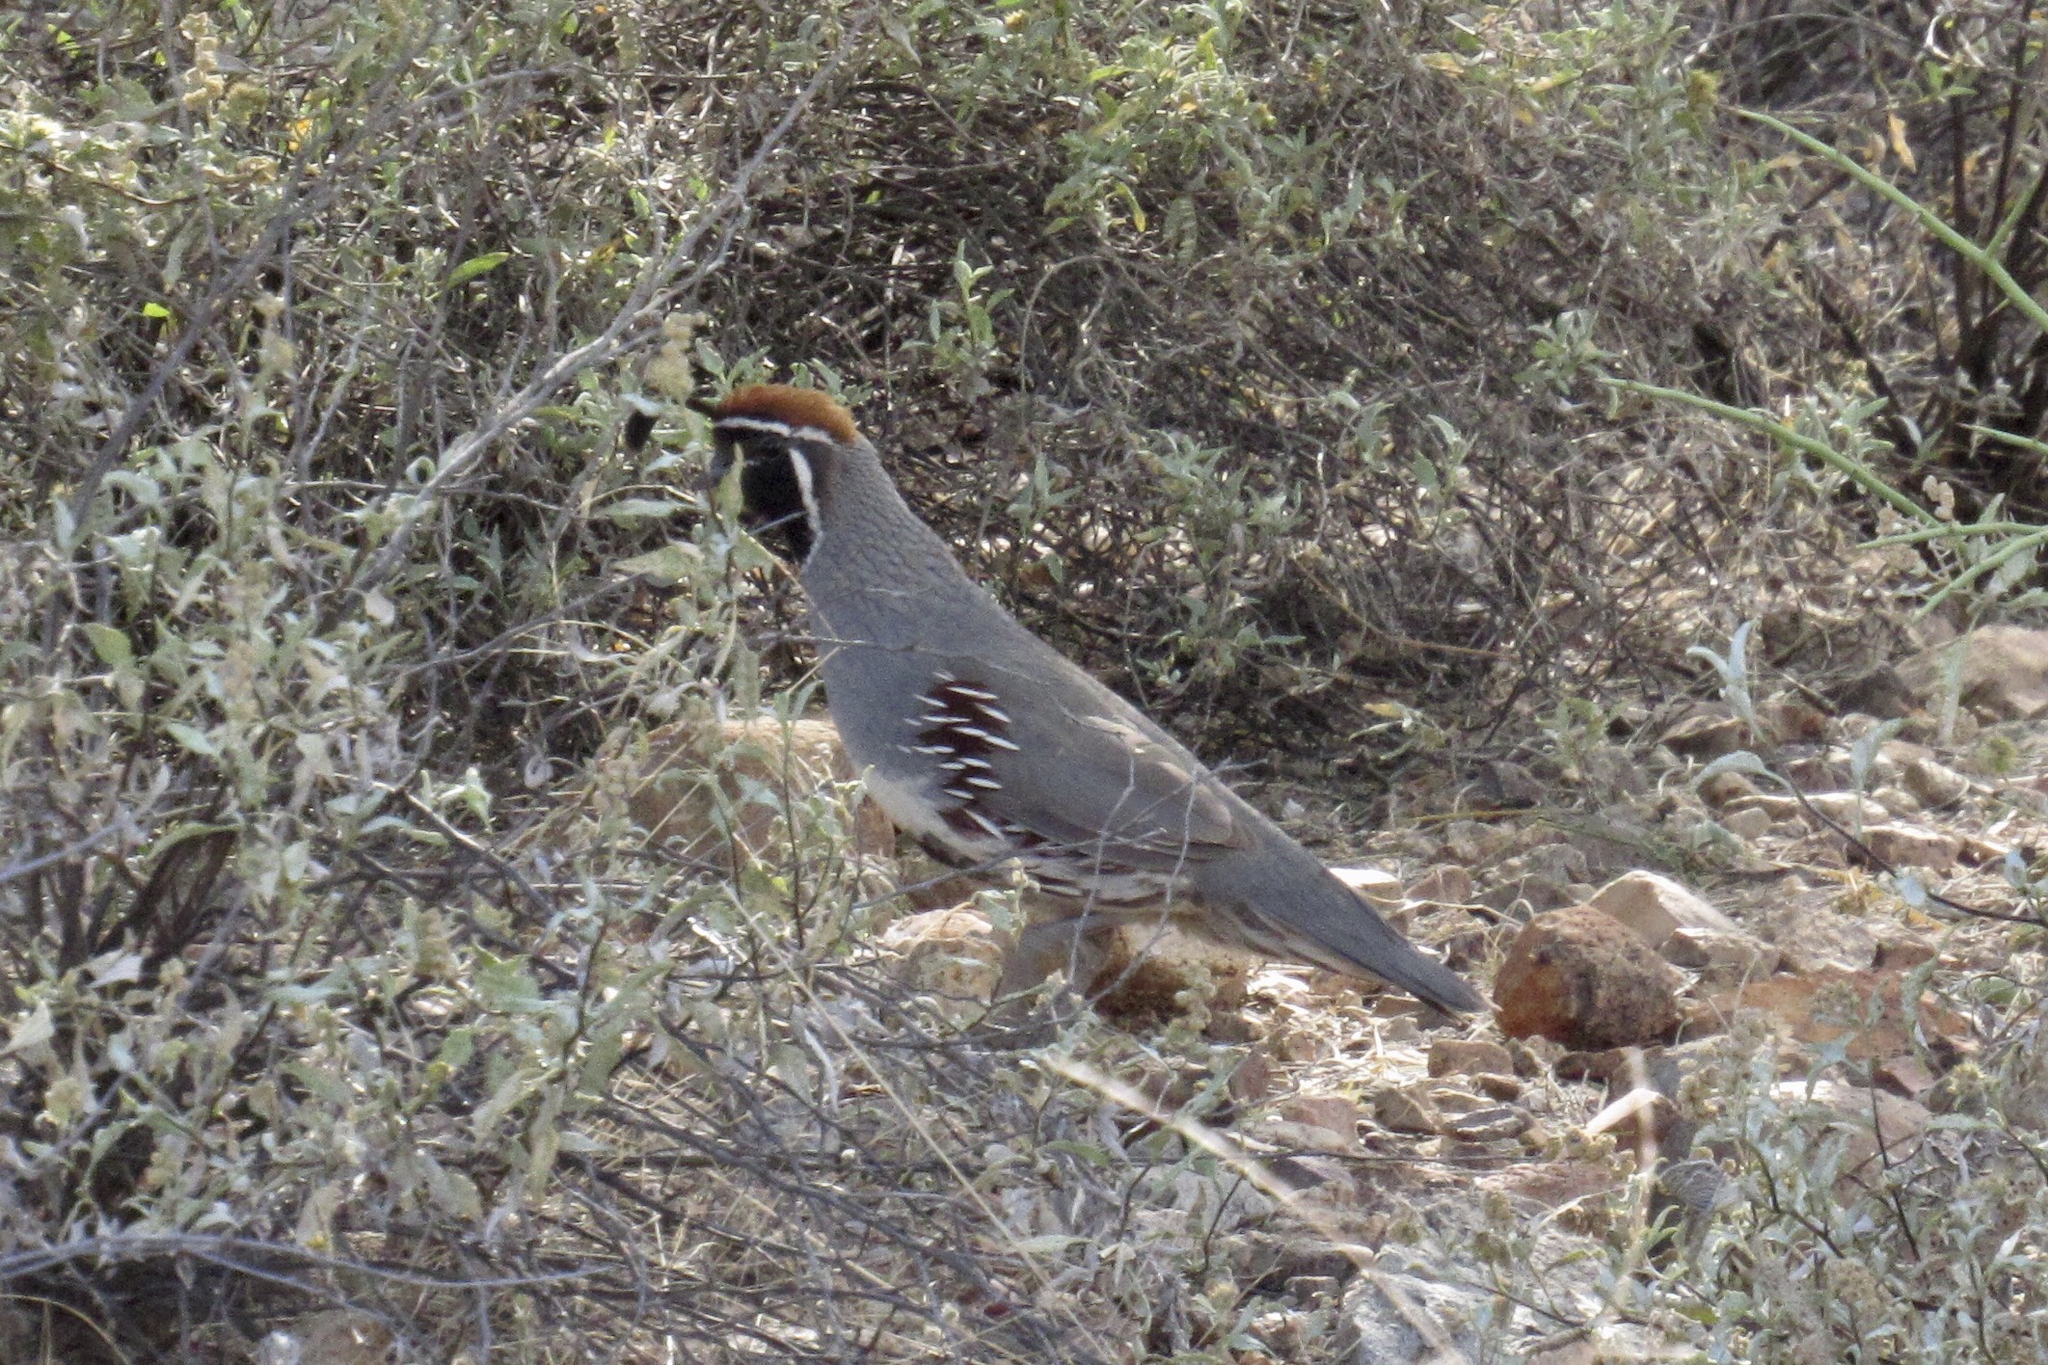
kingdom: Animalia
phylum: Chordata
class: Aves
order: Galliformes
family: Odontophoridae
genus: Callipepla
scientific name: Callipepla gambelii
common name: Gambel's quail
